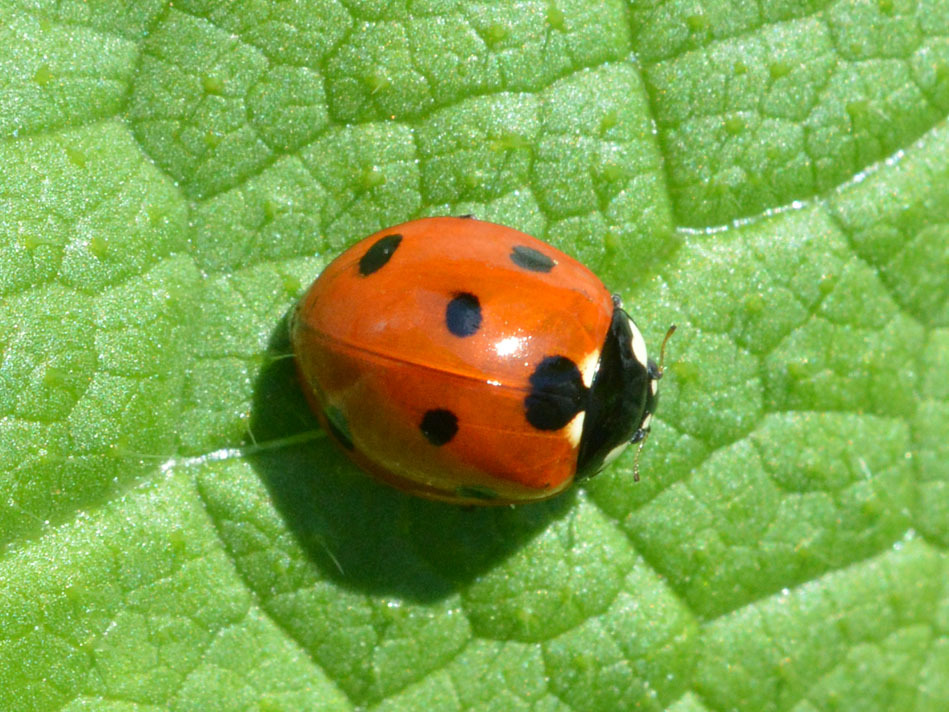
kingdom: Animalia
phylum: Arthropoda
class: Insecta
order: Coleoptera
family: Coccinellidae
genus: Coccinella
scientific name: Coccinella septempunctata
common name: Sevenspotted lady beetle
